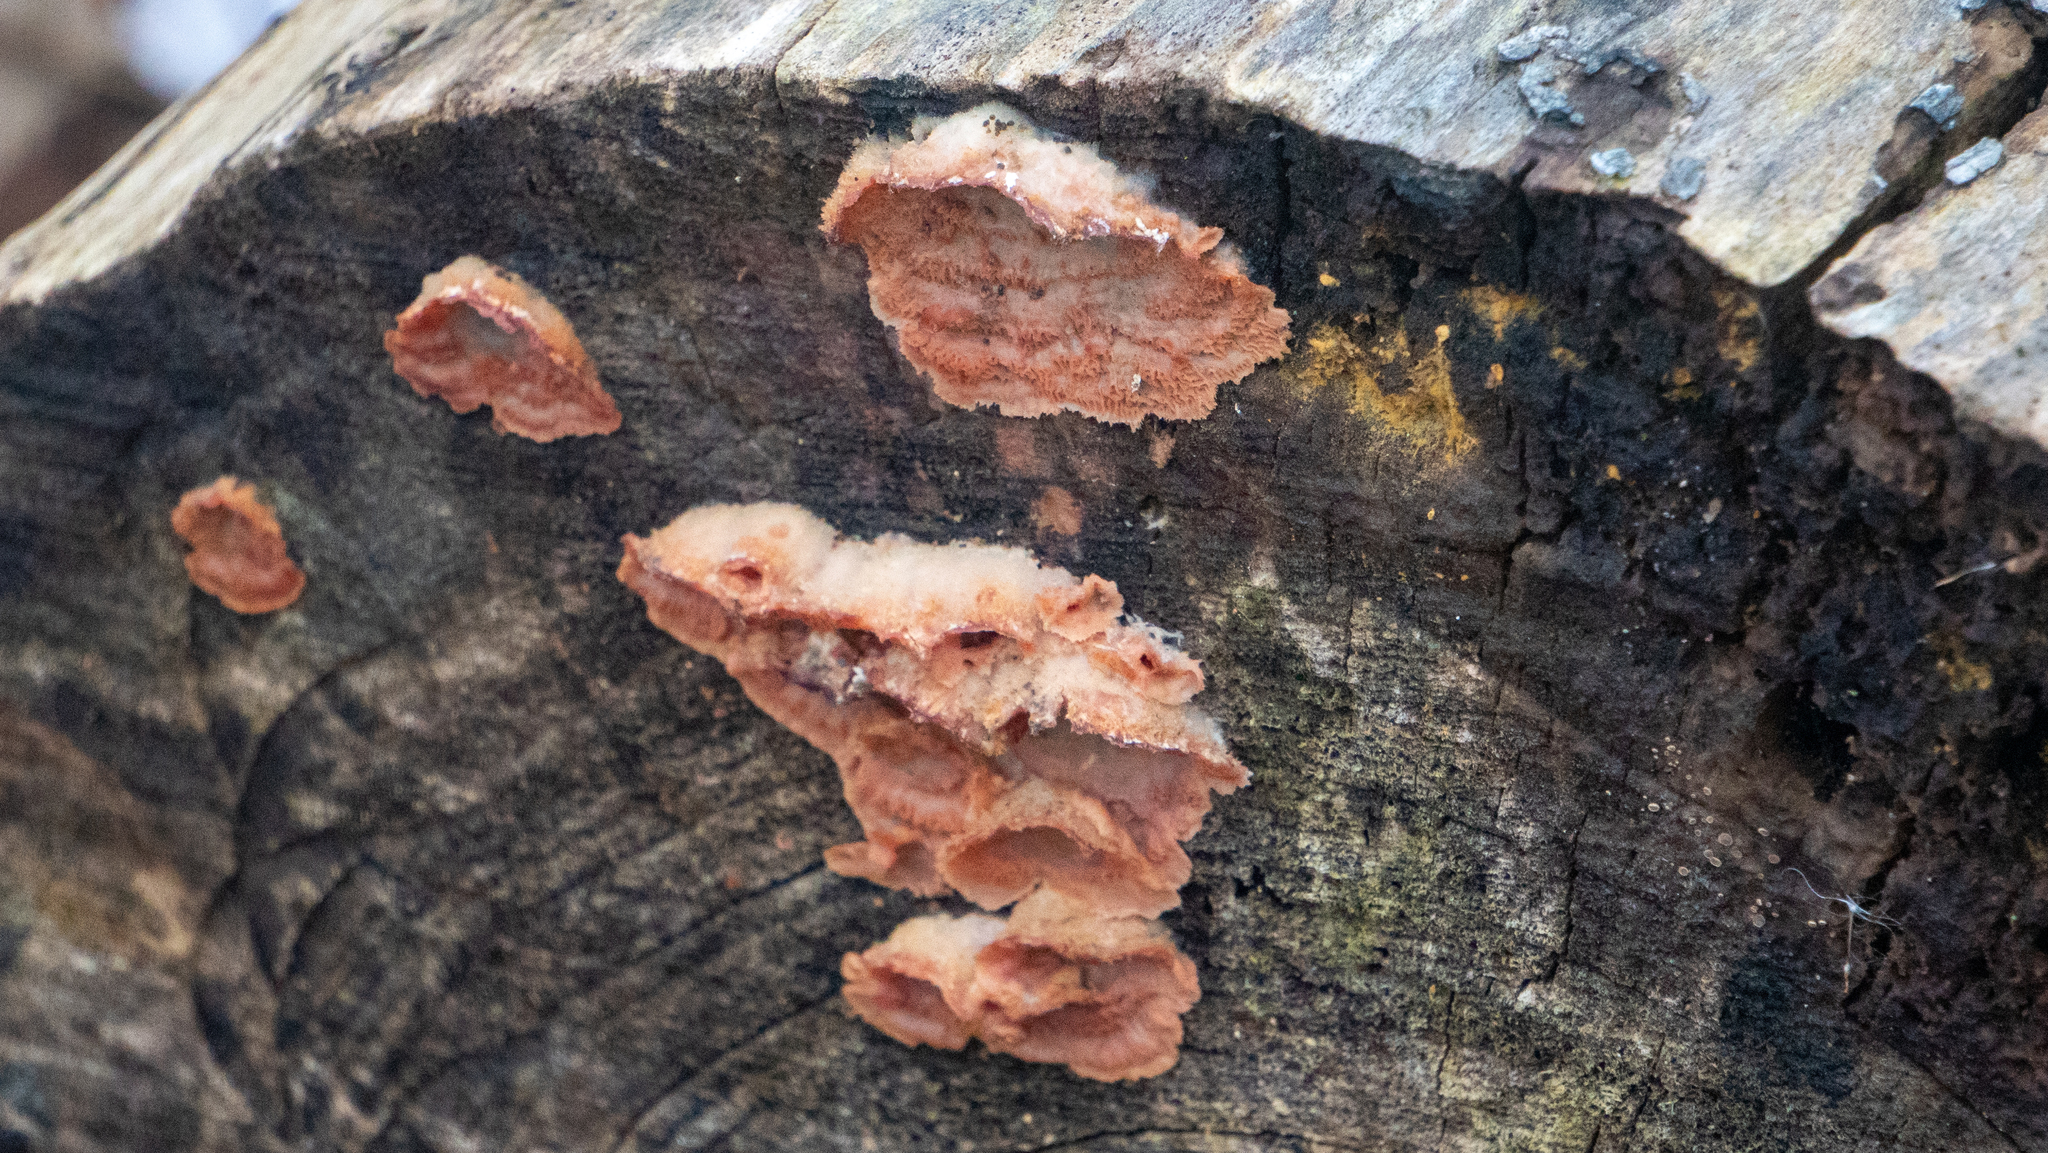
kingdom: Fungi
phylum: Basidiomycota
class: Agaricomycetes
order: Polyporales
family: Meruliaceae
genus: Phlebia
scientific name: Phlebia tremellosa
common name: Jelly rot
